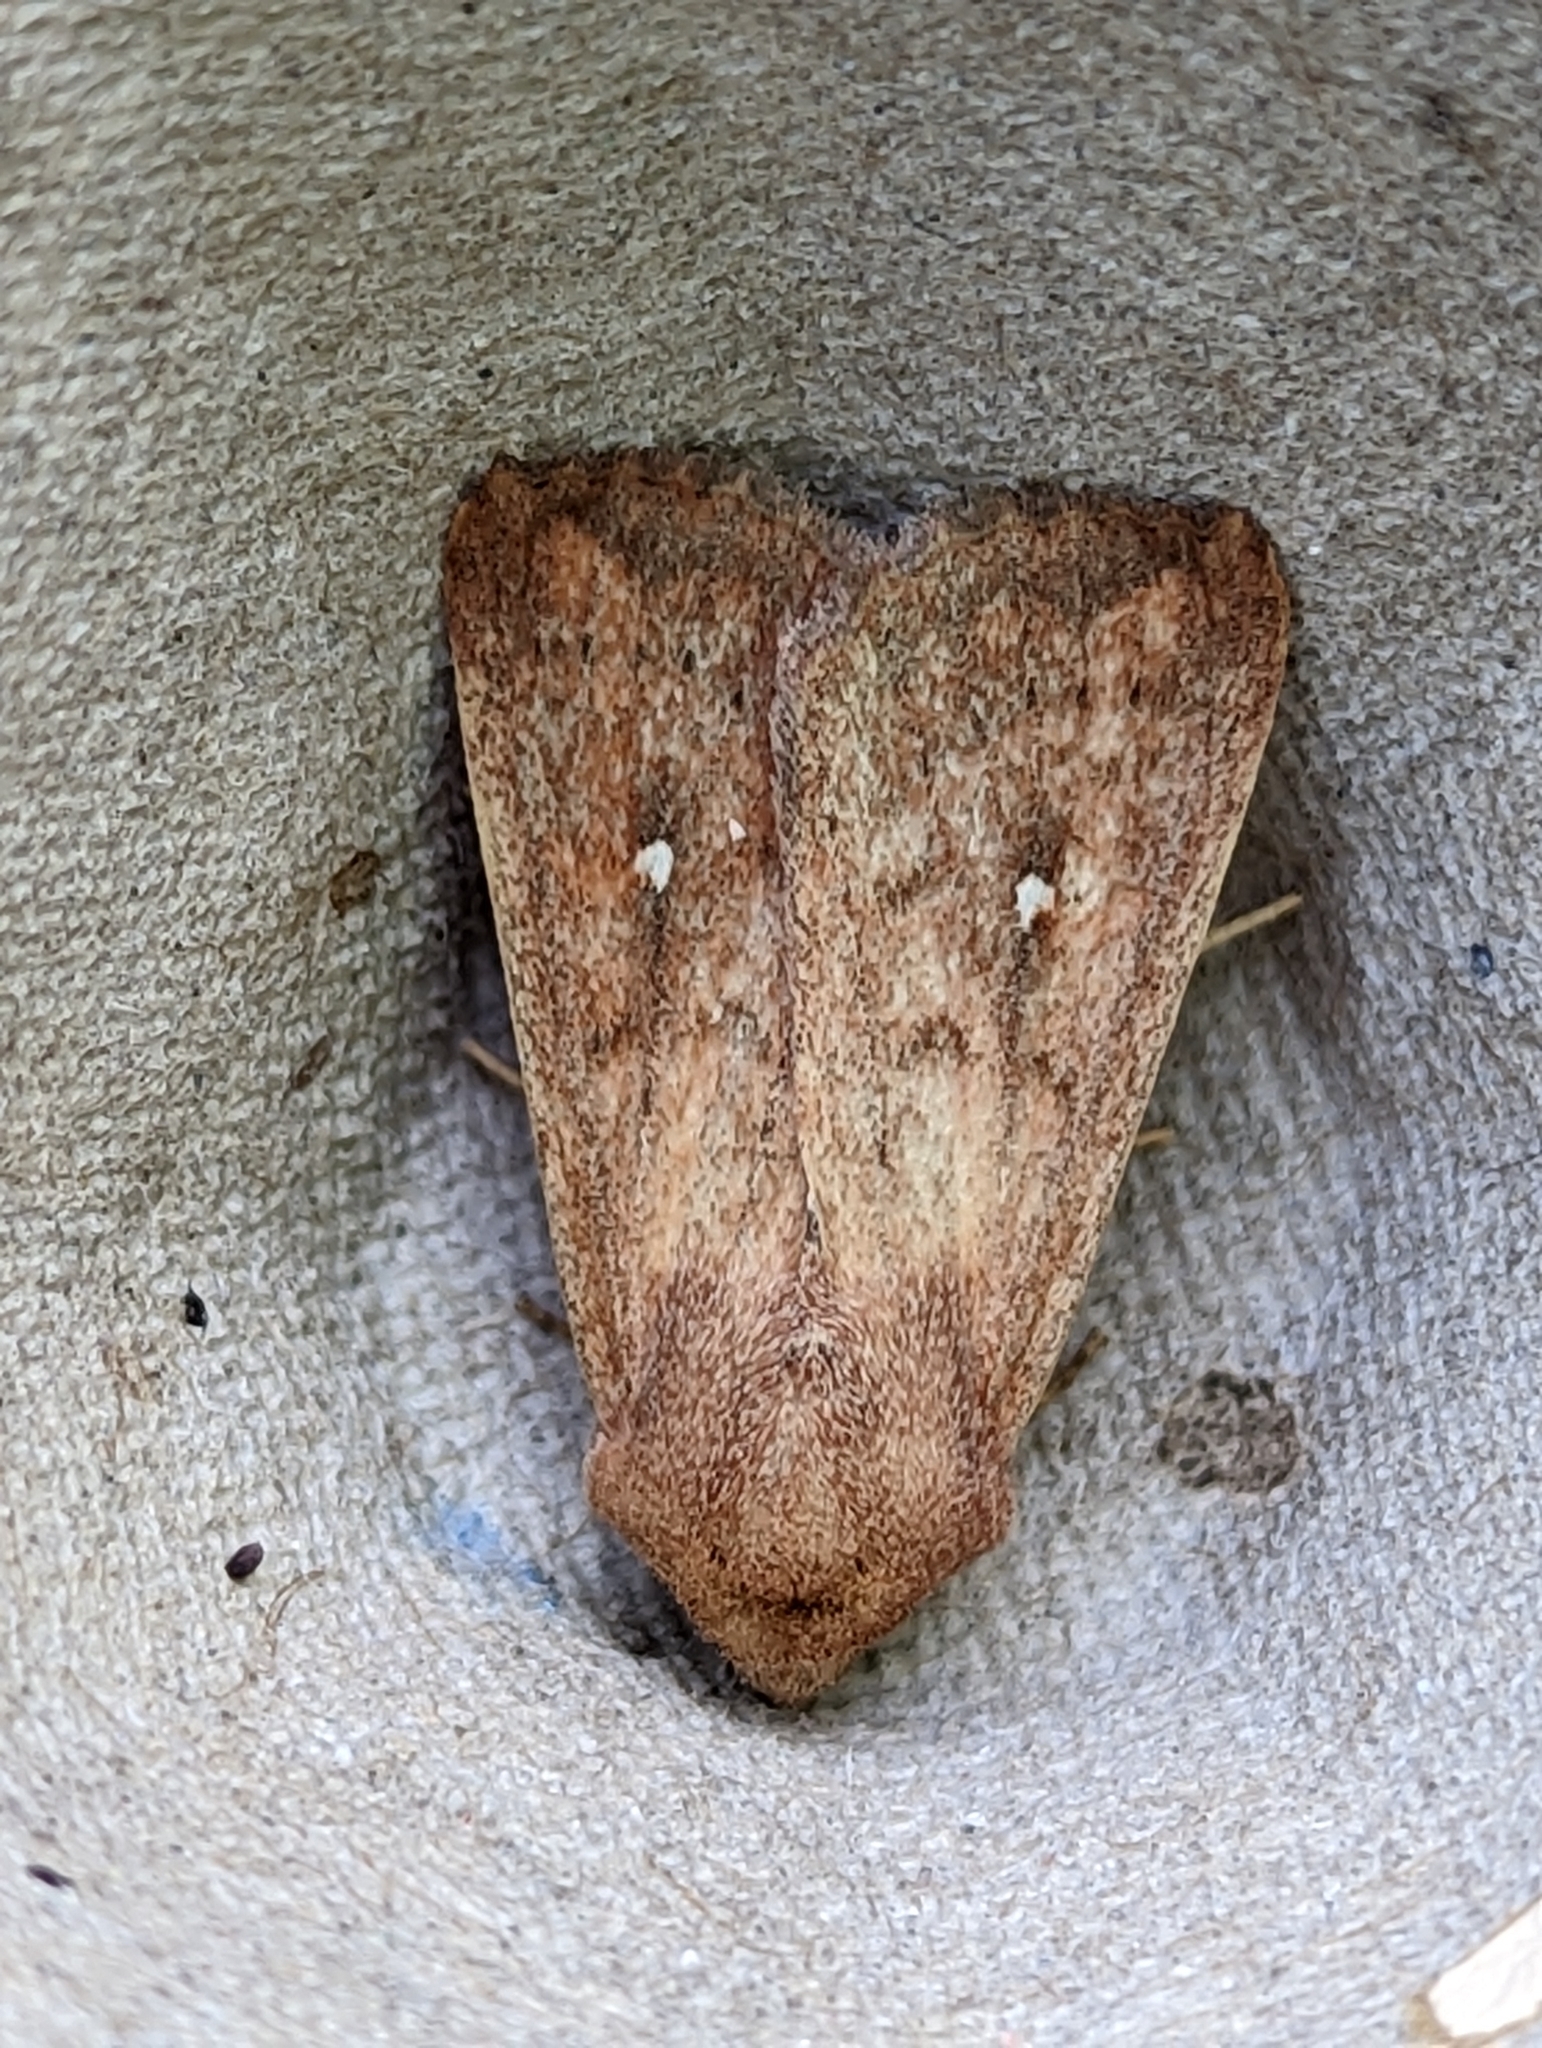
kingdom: Animalia
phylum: Arthropoda
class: Insecta
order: Lepidoptera
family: Noctuidae
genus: Mythimna
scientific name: Mythimna albipuncta
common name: White-point
